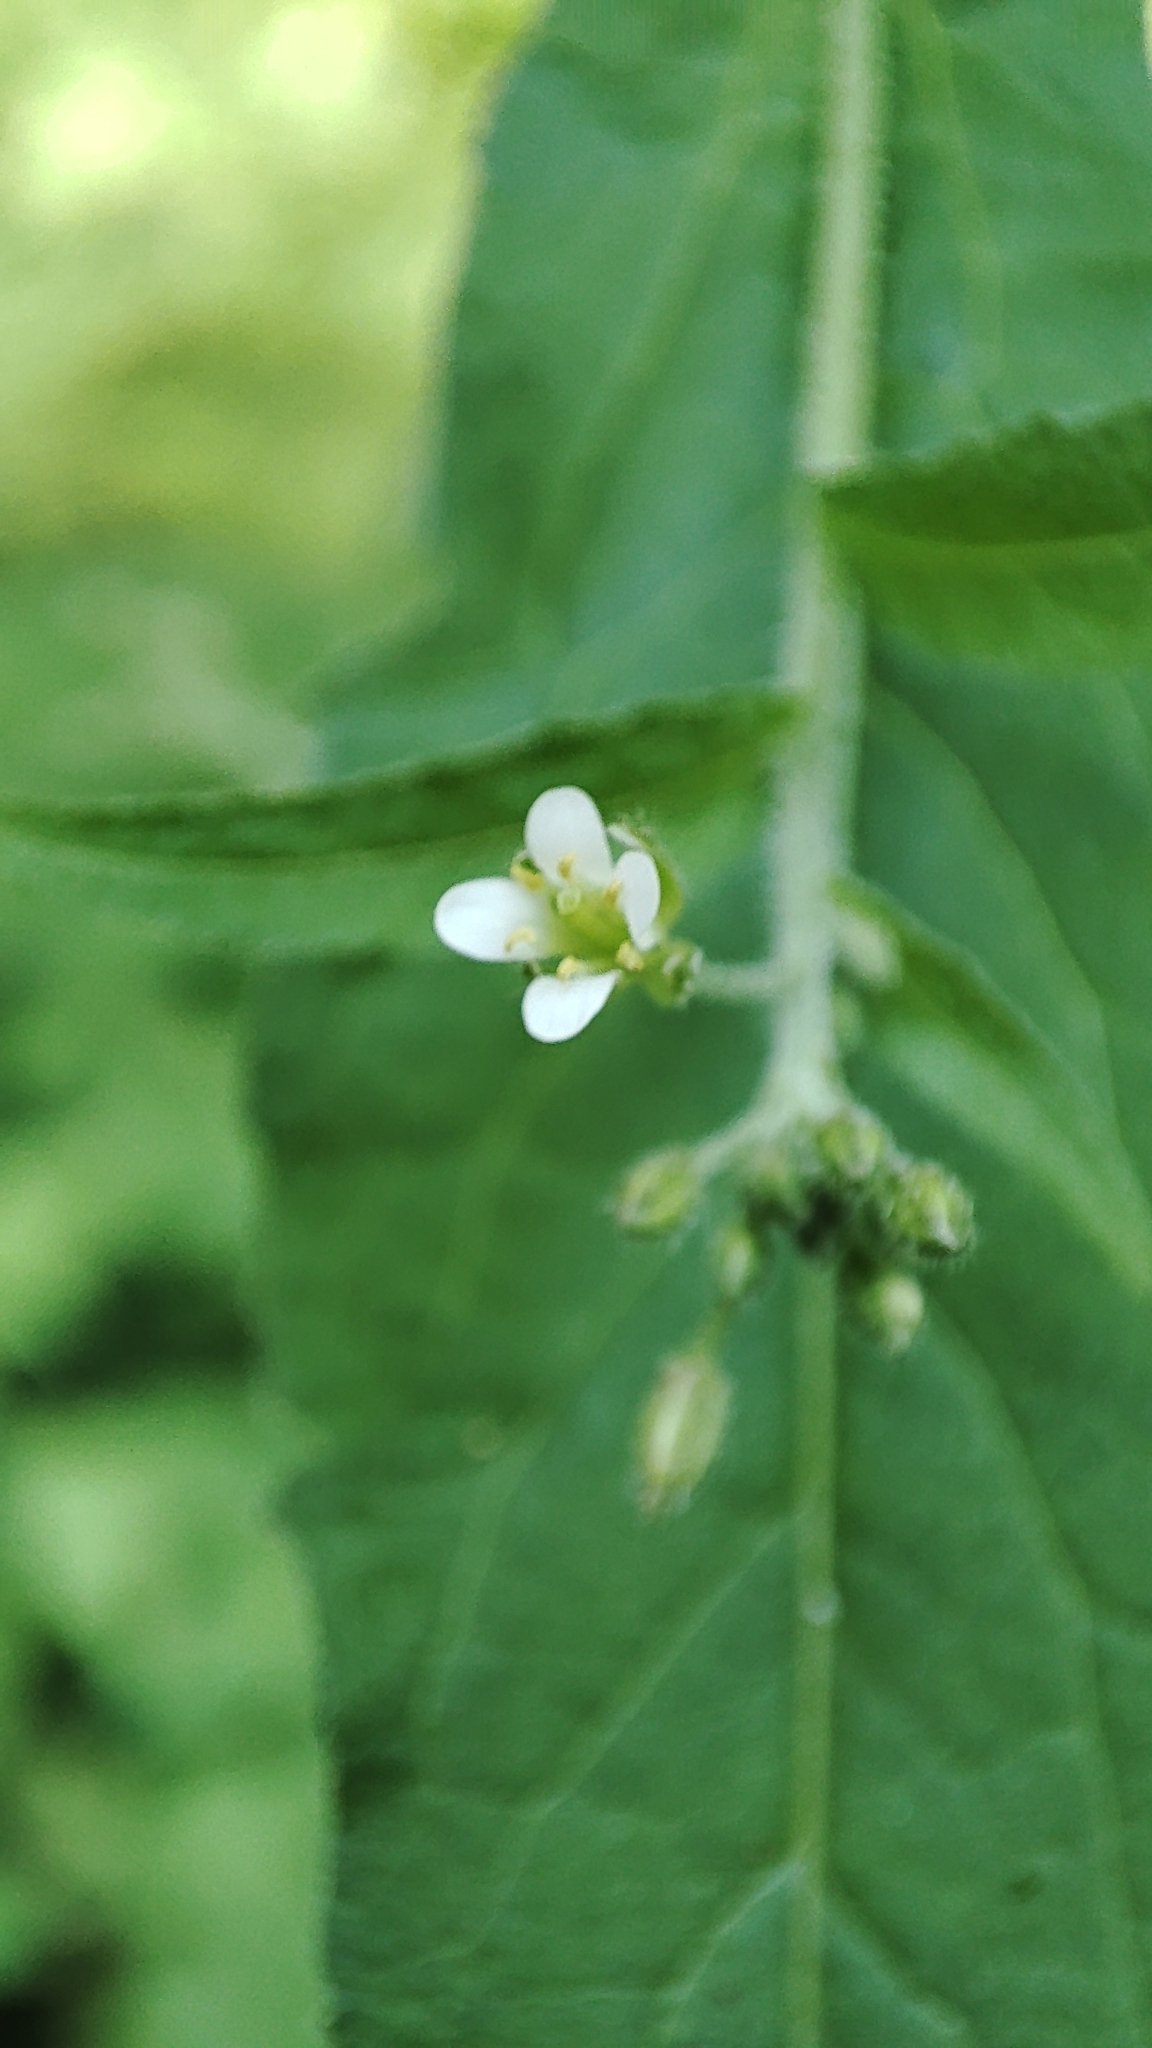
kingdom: Plantae
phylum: Tracheophyta
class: Magnoliopsida
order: Brassicales
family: Brassicaceae
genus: Catolobus
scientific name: Catolobus pendulus
